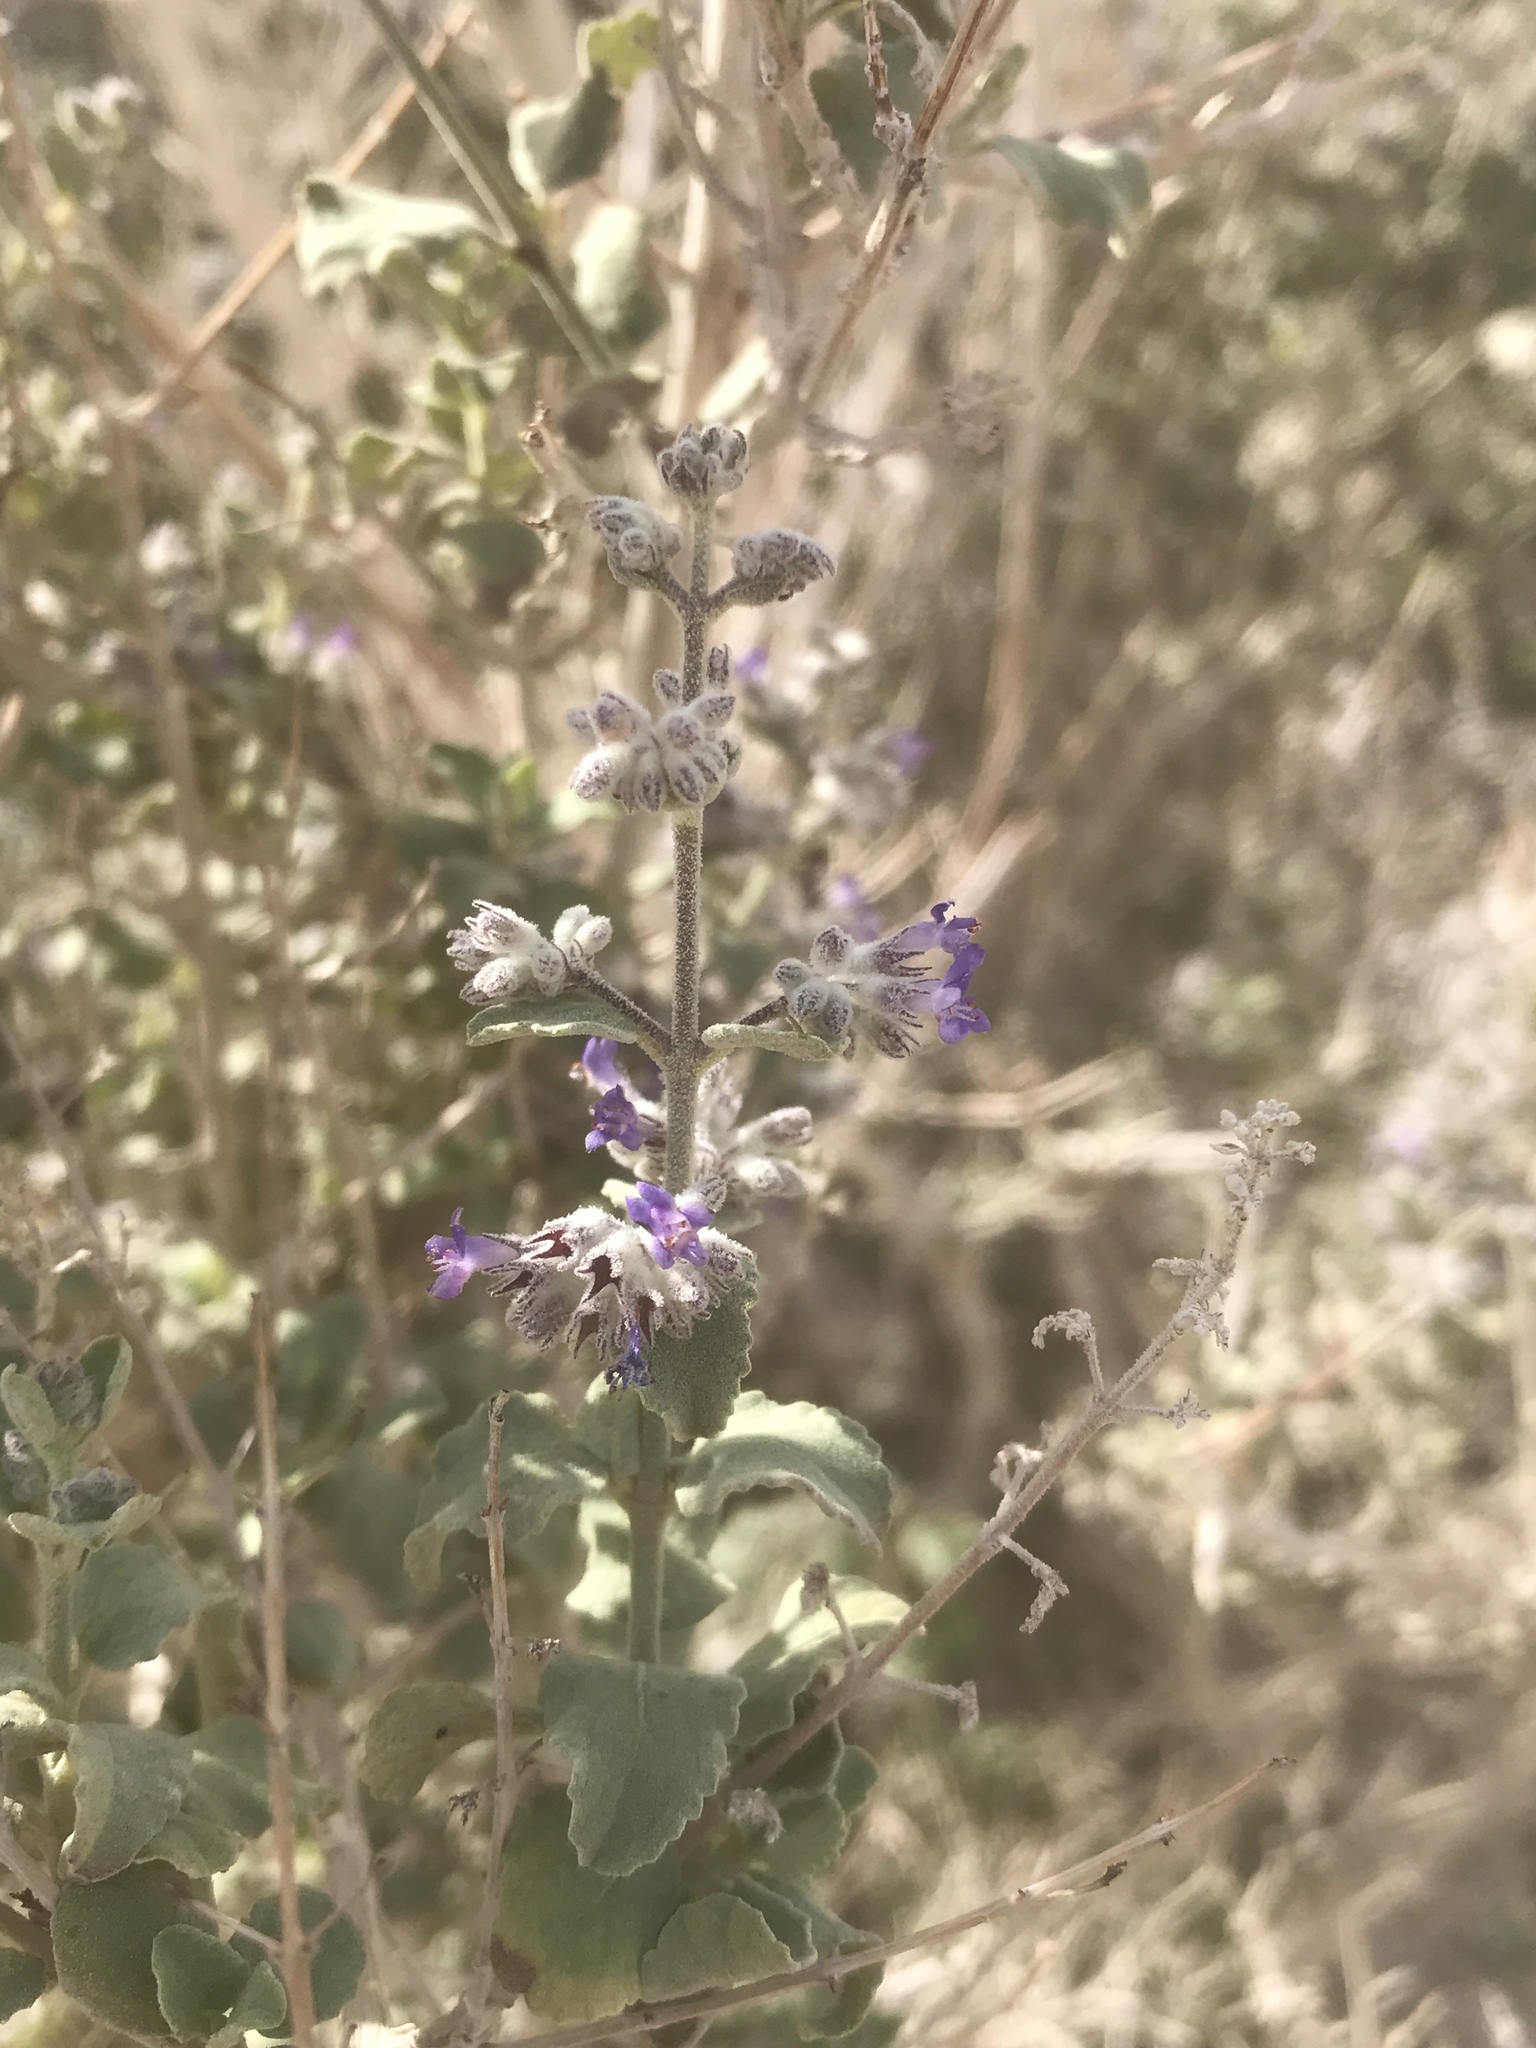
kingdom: Plantae
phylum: Tracheophyta
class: Magnoliopsida
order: Lamiales
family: Lamiaceae
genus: Condea
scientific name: Condea emoryi
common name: Chia
